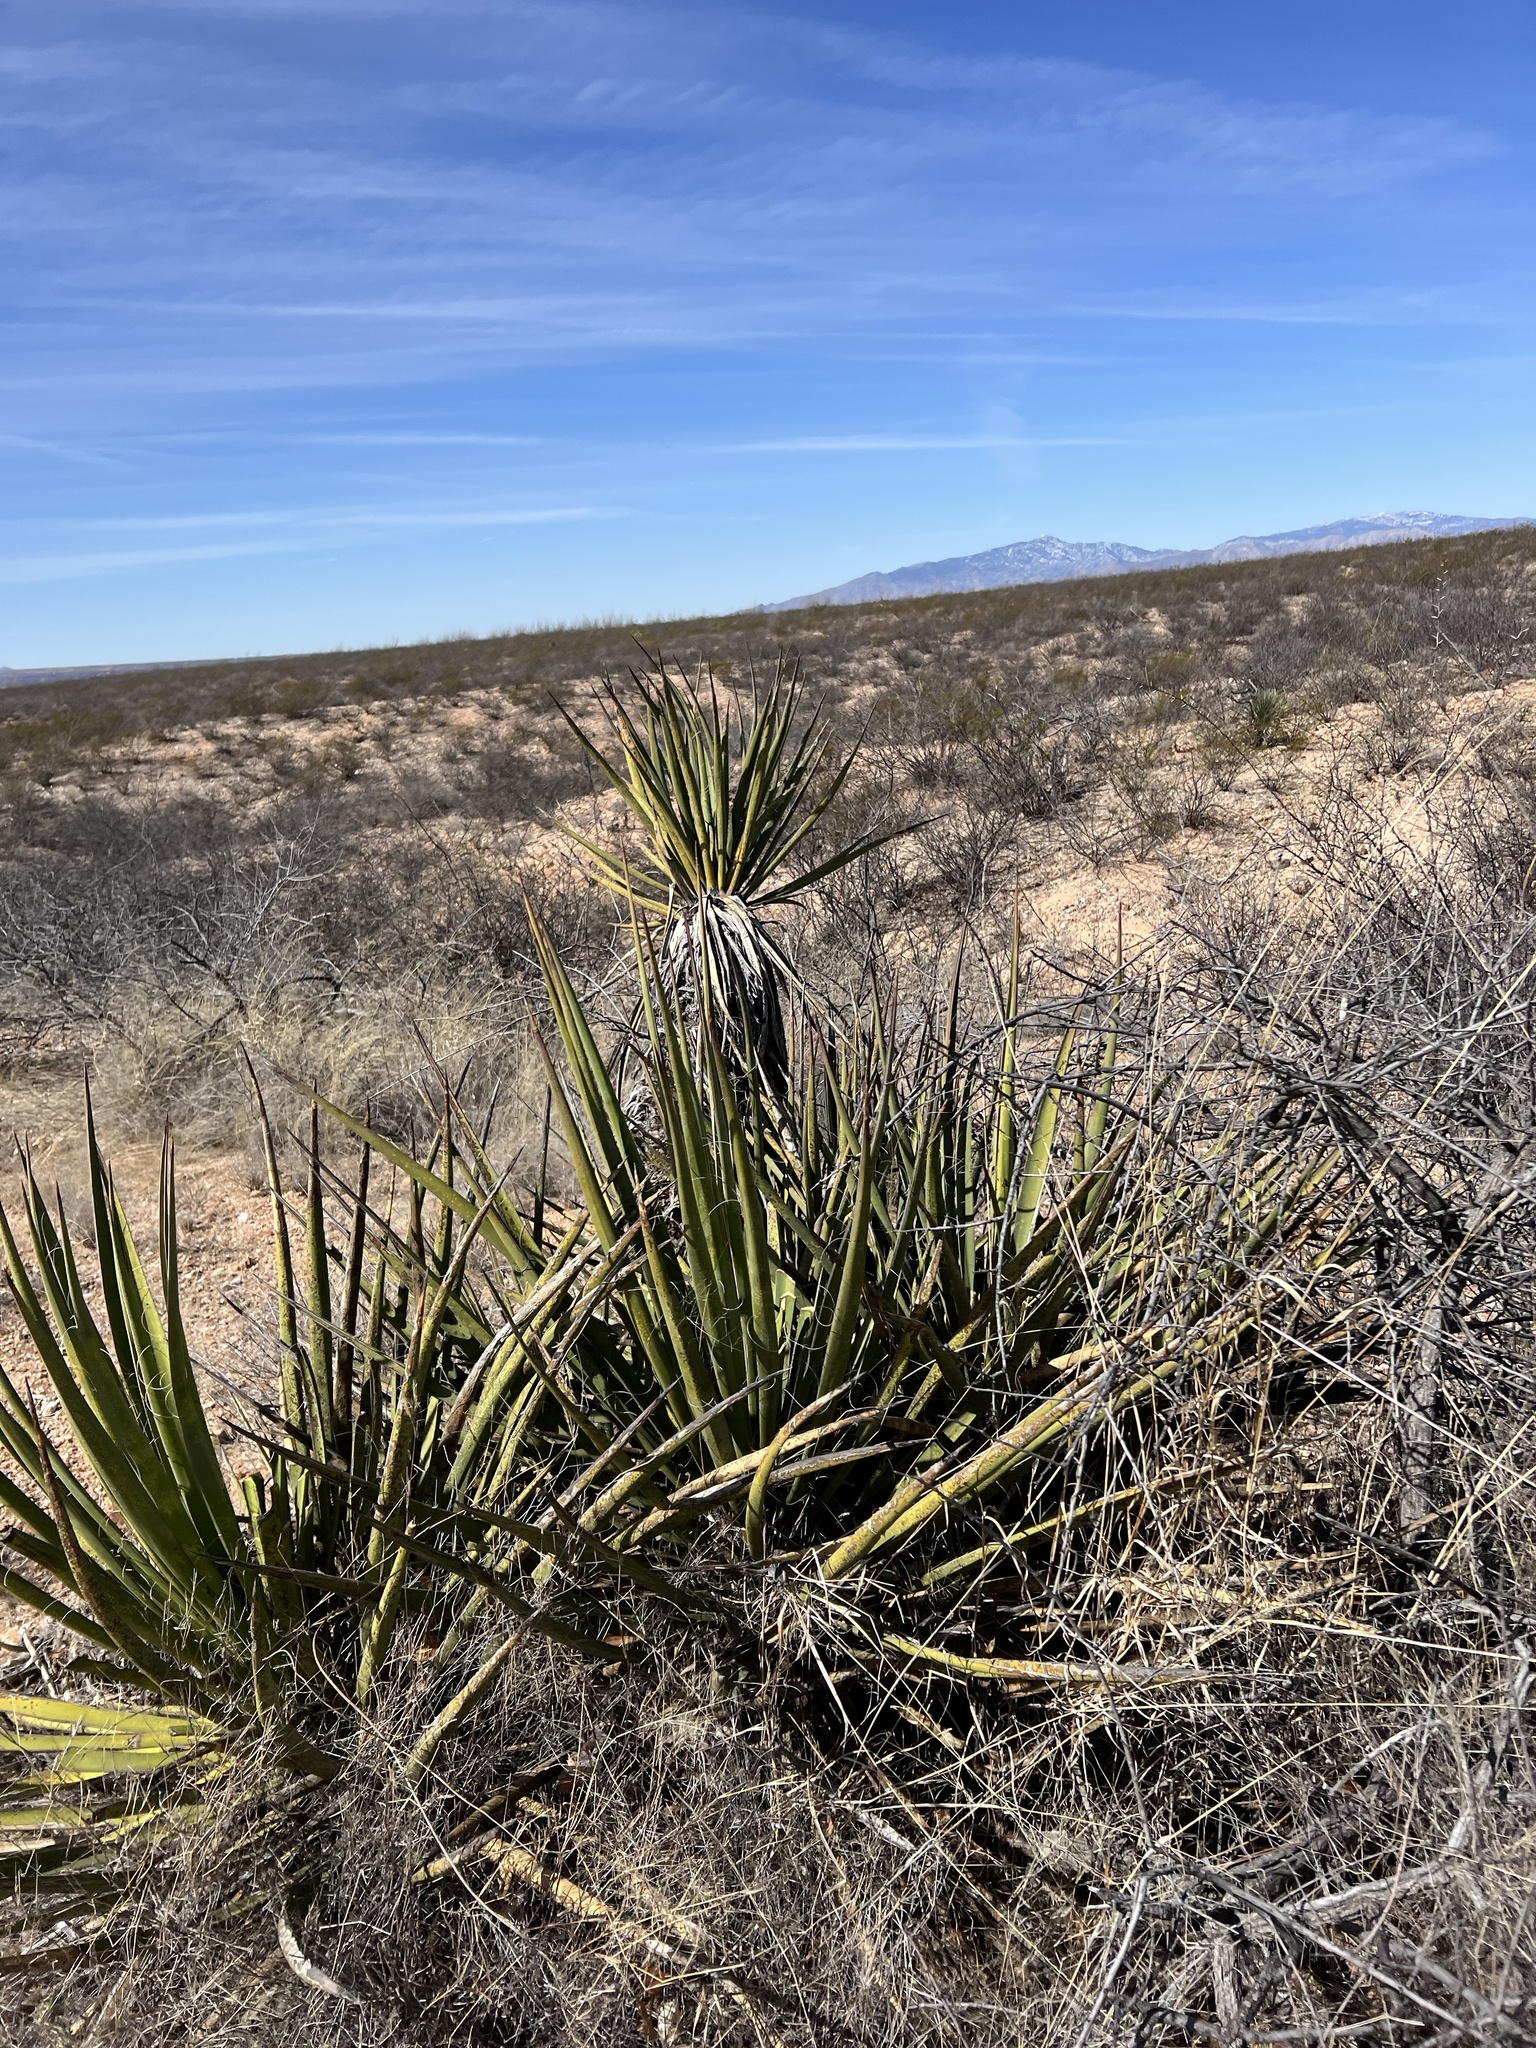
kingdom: Plantae
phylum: Tracheophyta
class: Liliopsida
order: Asparagales
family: Asparagaceae
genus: Yucca
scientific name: Yucca baccata
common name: Banana yucca
